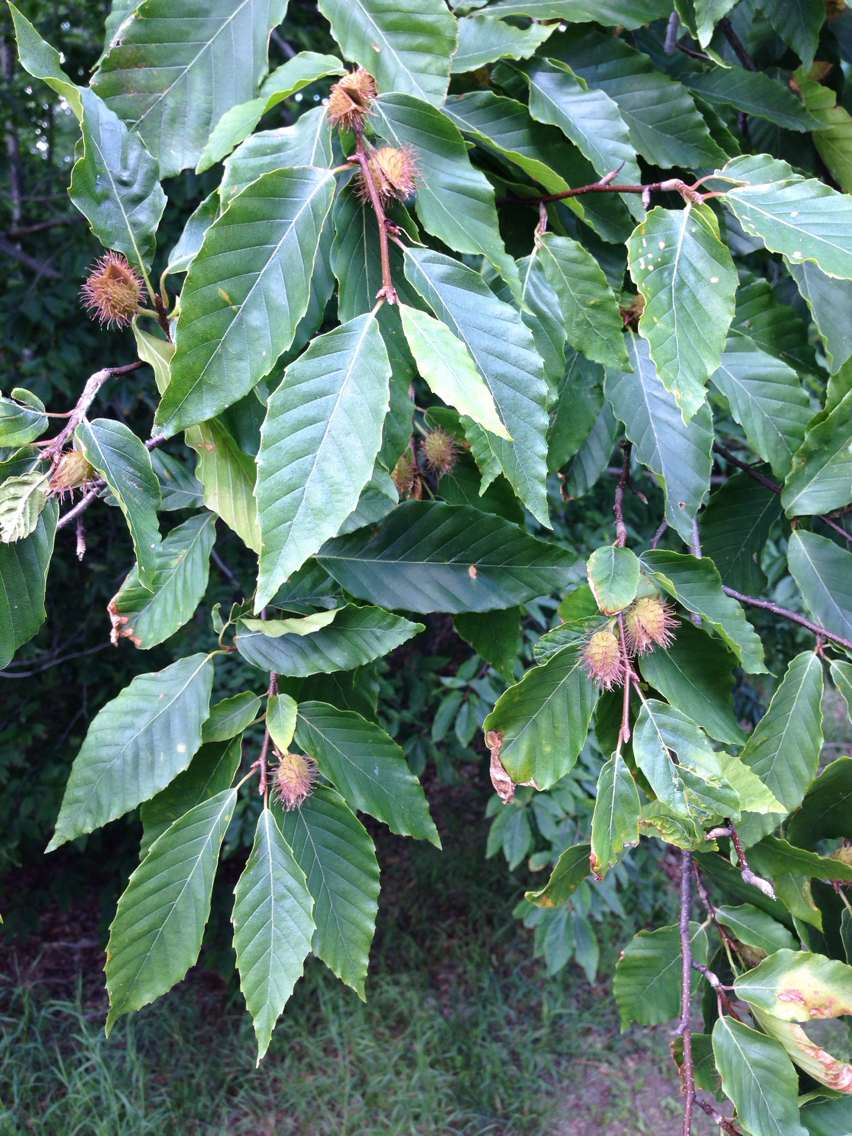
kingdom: Plantae
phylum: Tracheophyta
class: Magnoliopsida
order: Fagales
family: Fagaceae
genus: Fagus
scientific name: Fagus grandifolia
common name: American beech
